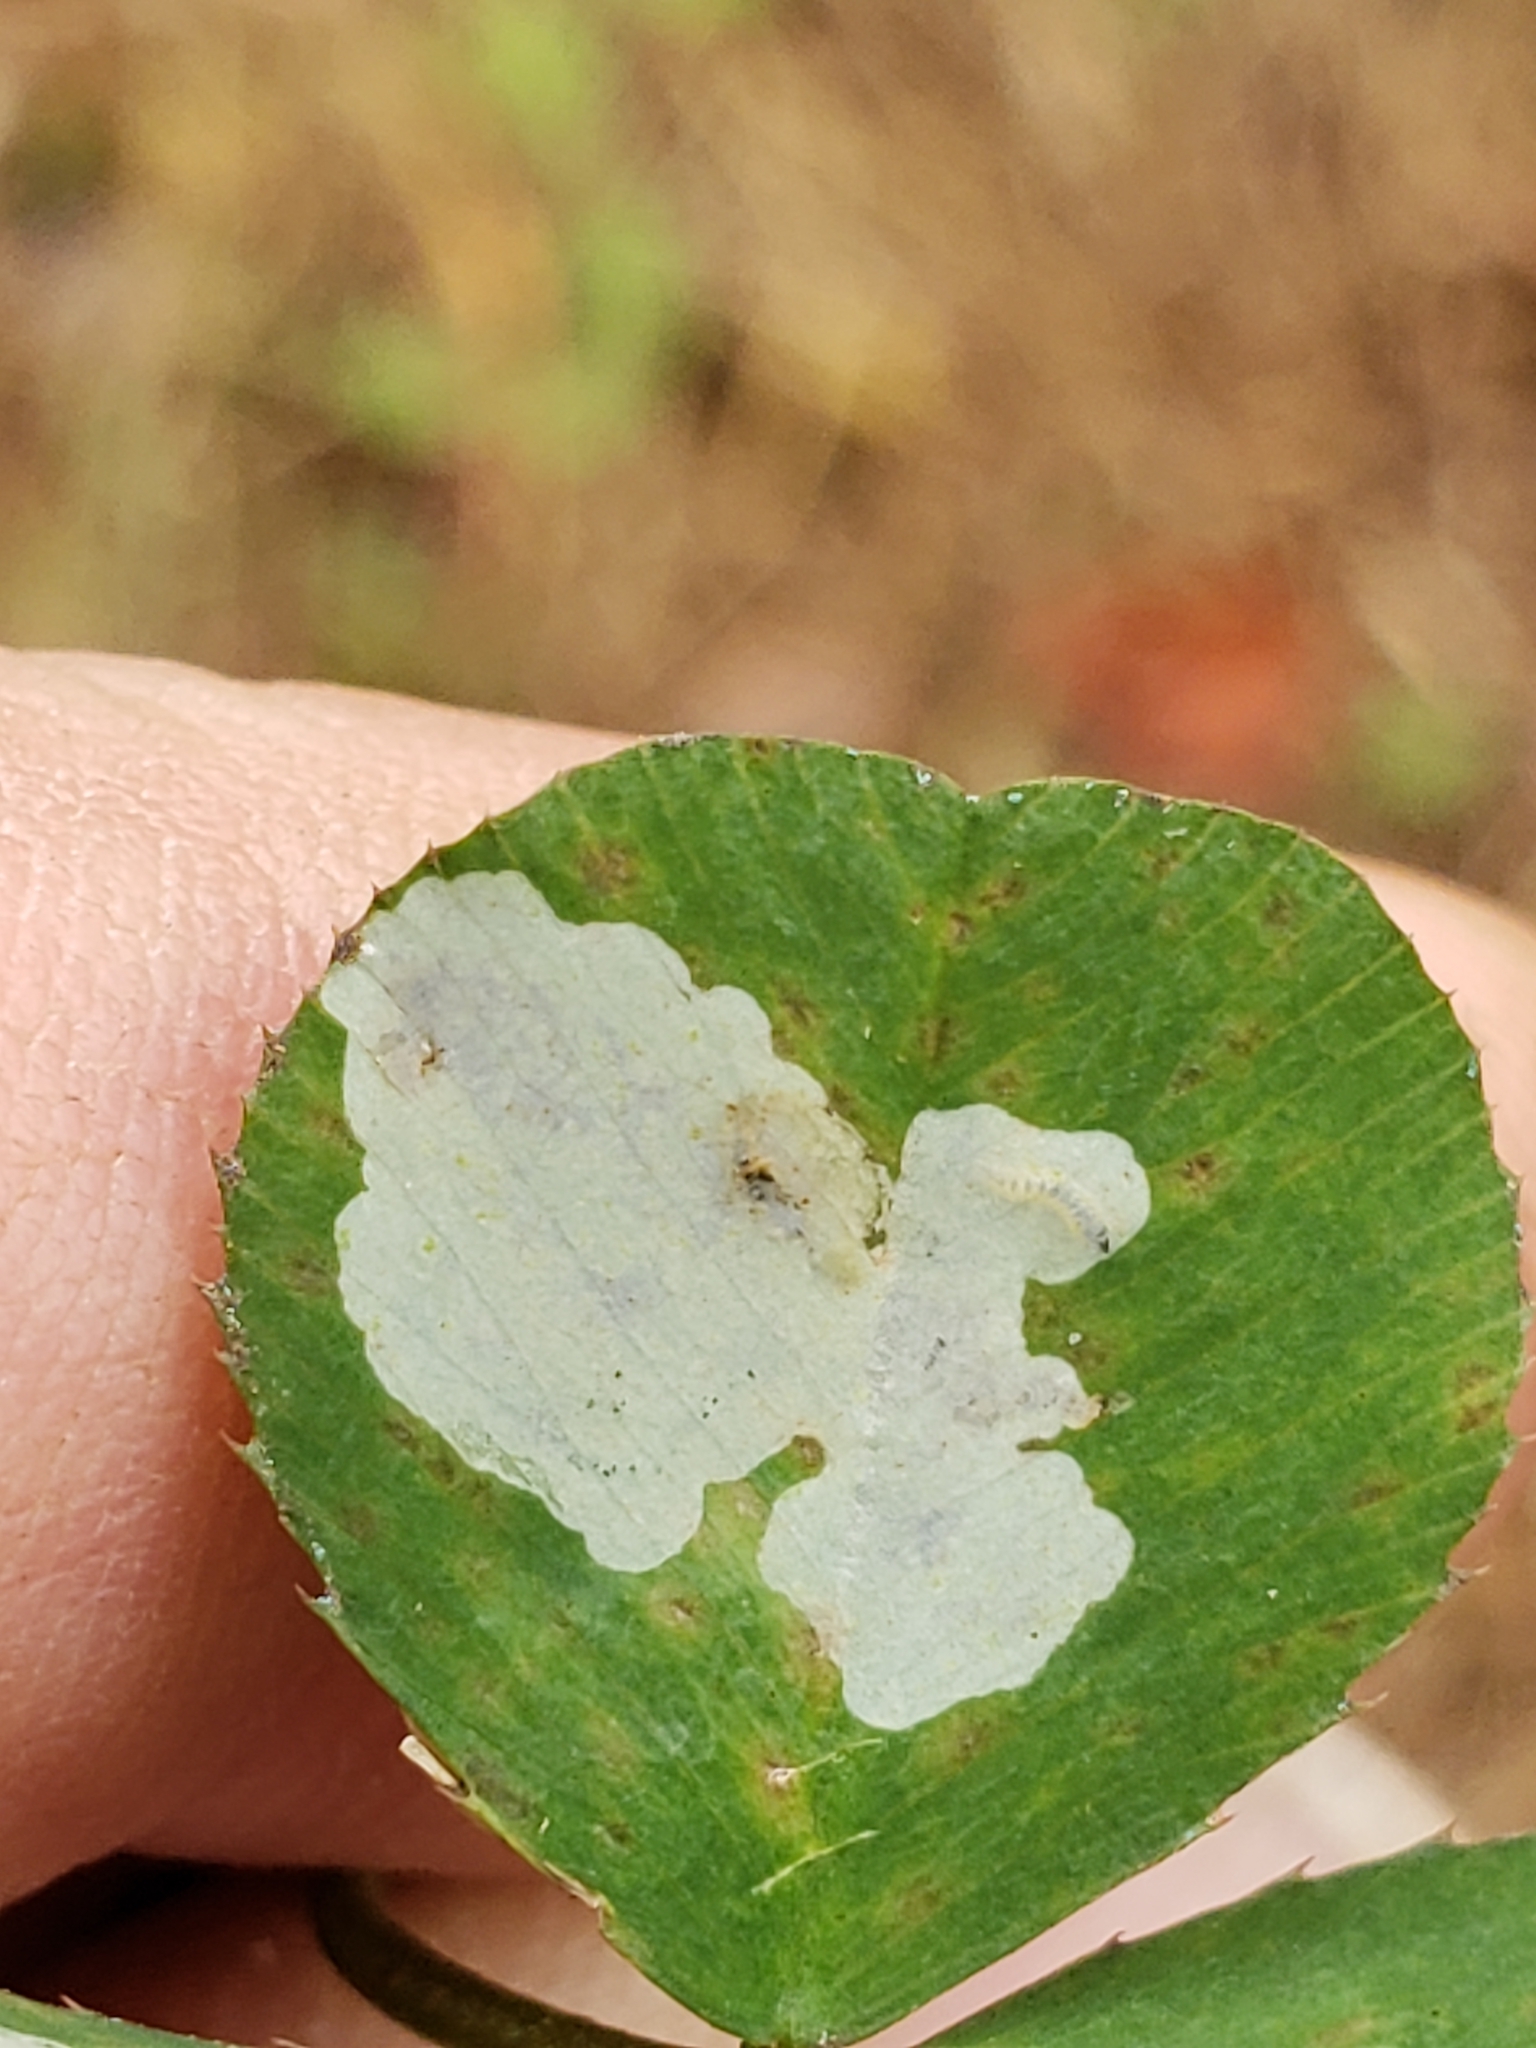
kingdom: Animalia
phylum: Arthropoda
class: Insecta
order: Lepidoptera
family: Gracillariidae
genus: Porphyrosela
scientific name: Porphyrosela minuta
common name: Leaf miner moth
